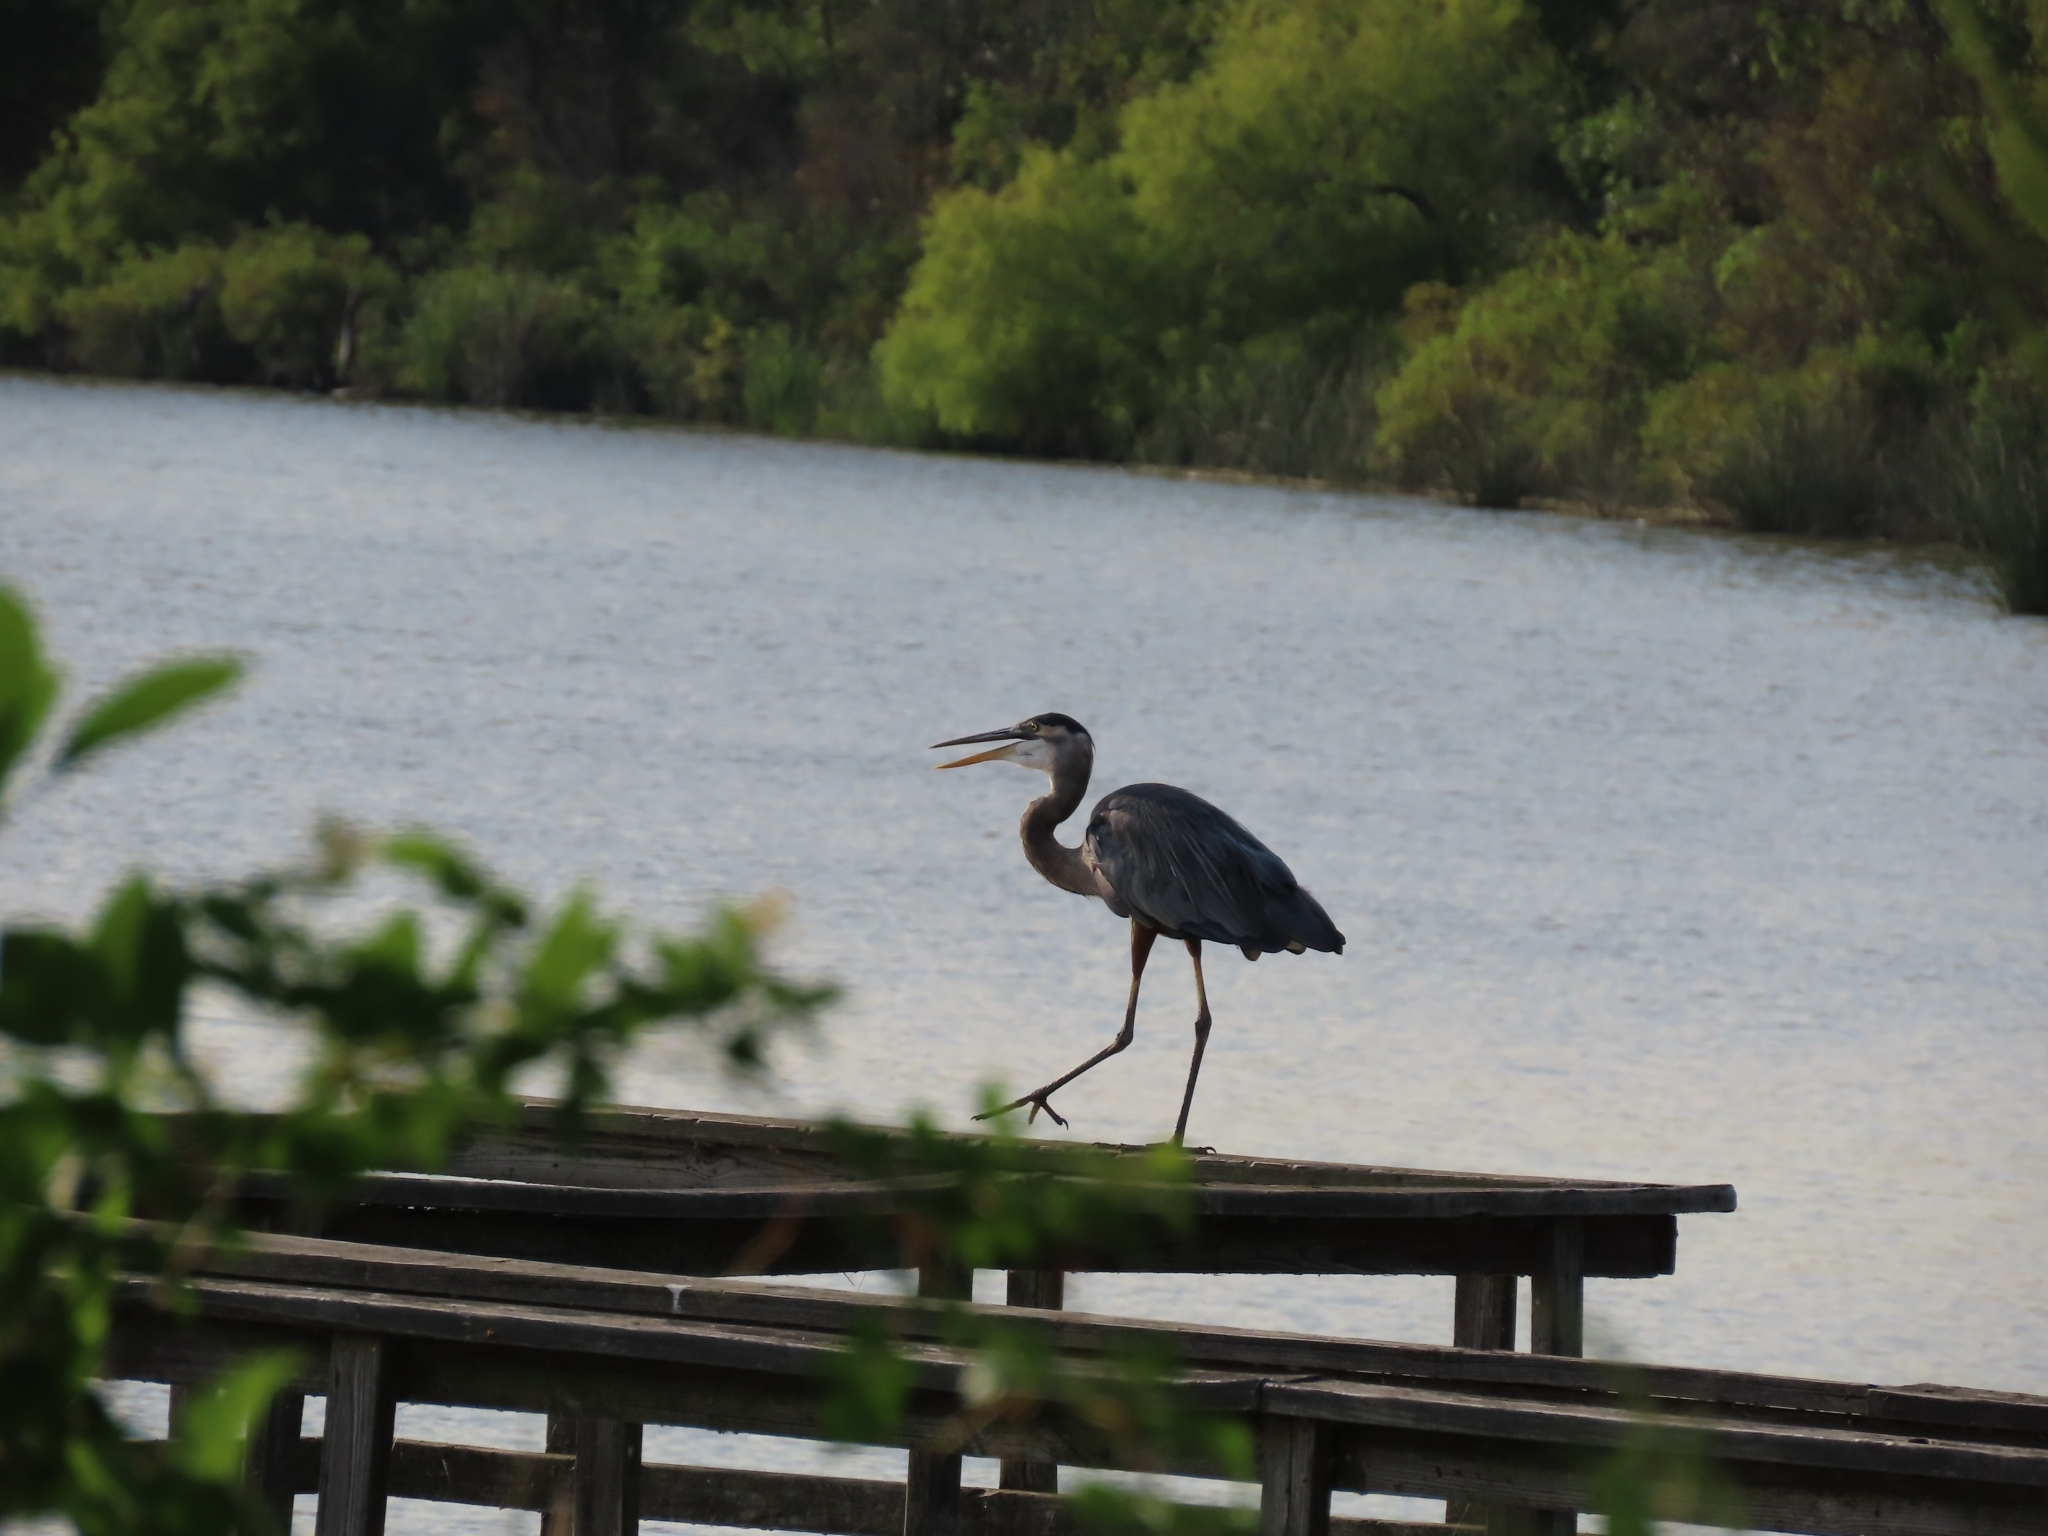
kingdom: Animalia
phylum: Chordata
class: Aves
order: Pelecaniformes
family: Ardeidae
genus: Ardea
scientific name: Ardea herodias
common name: Great blue heron
